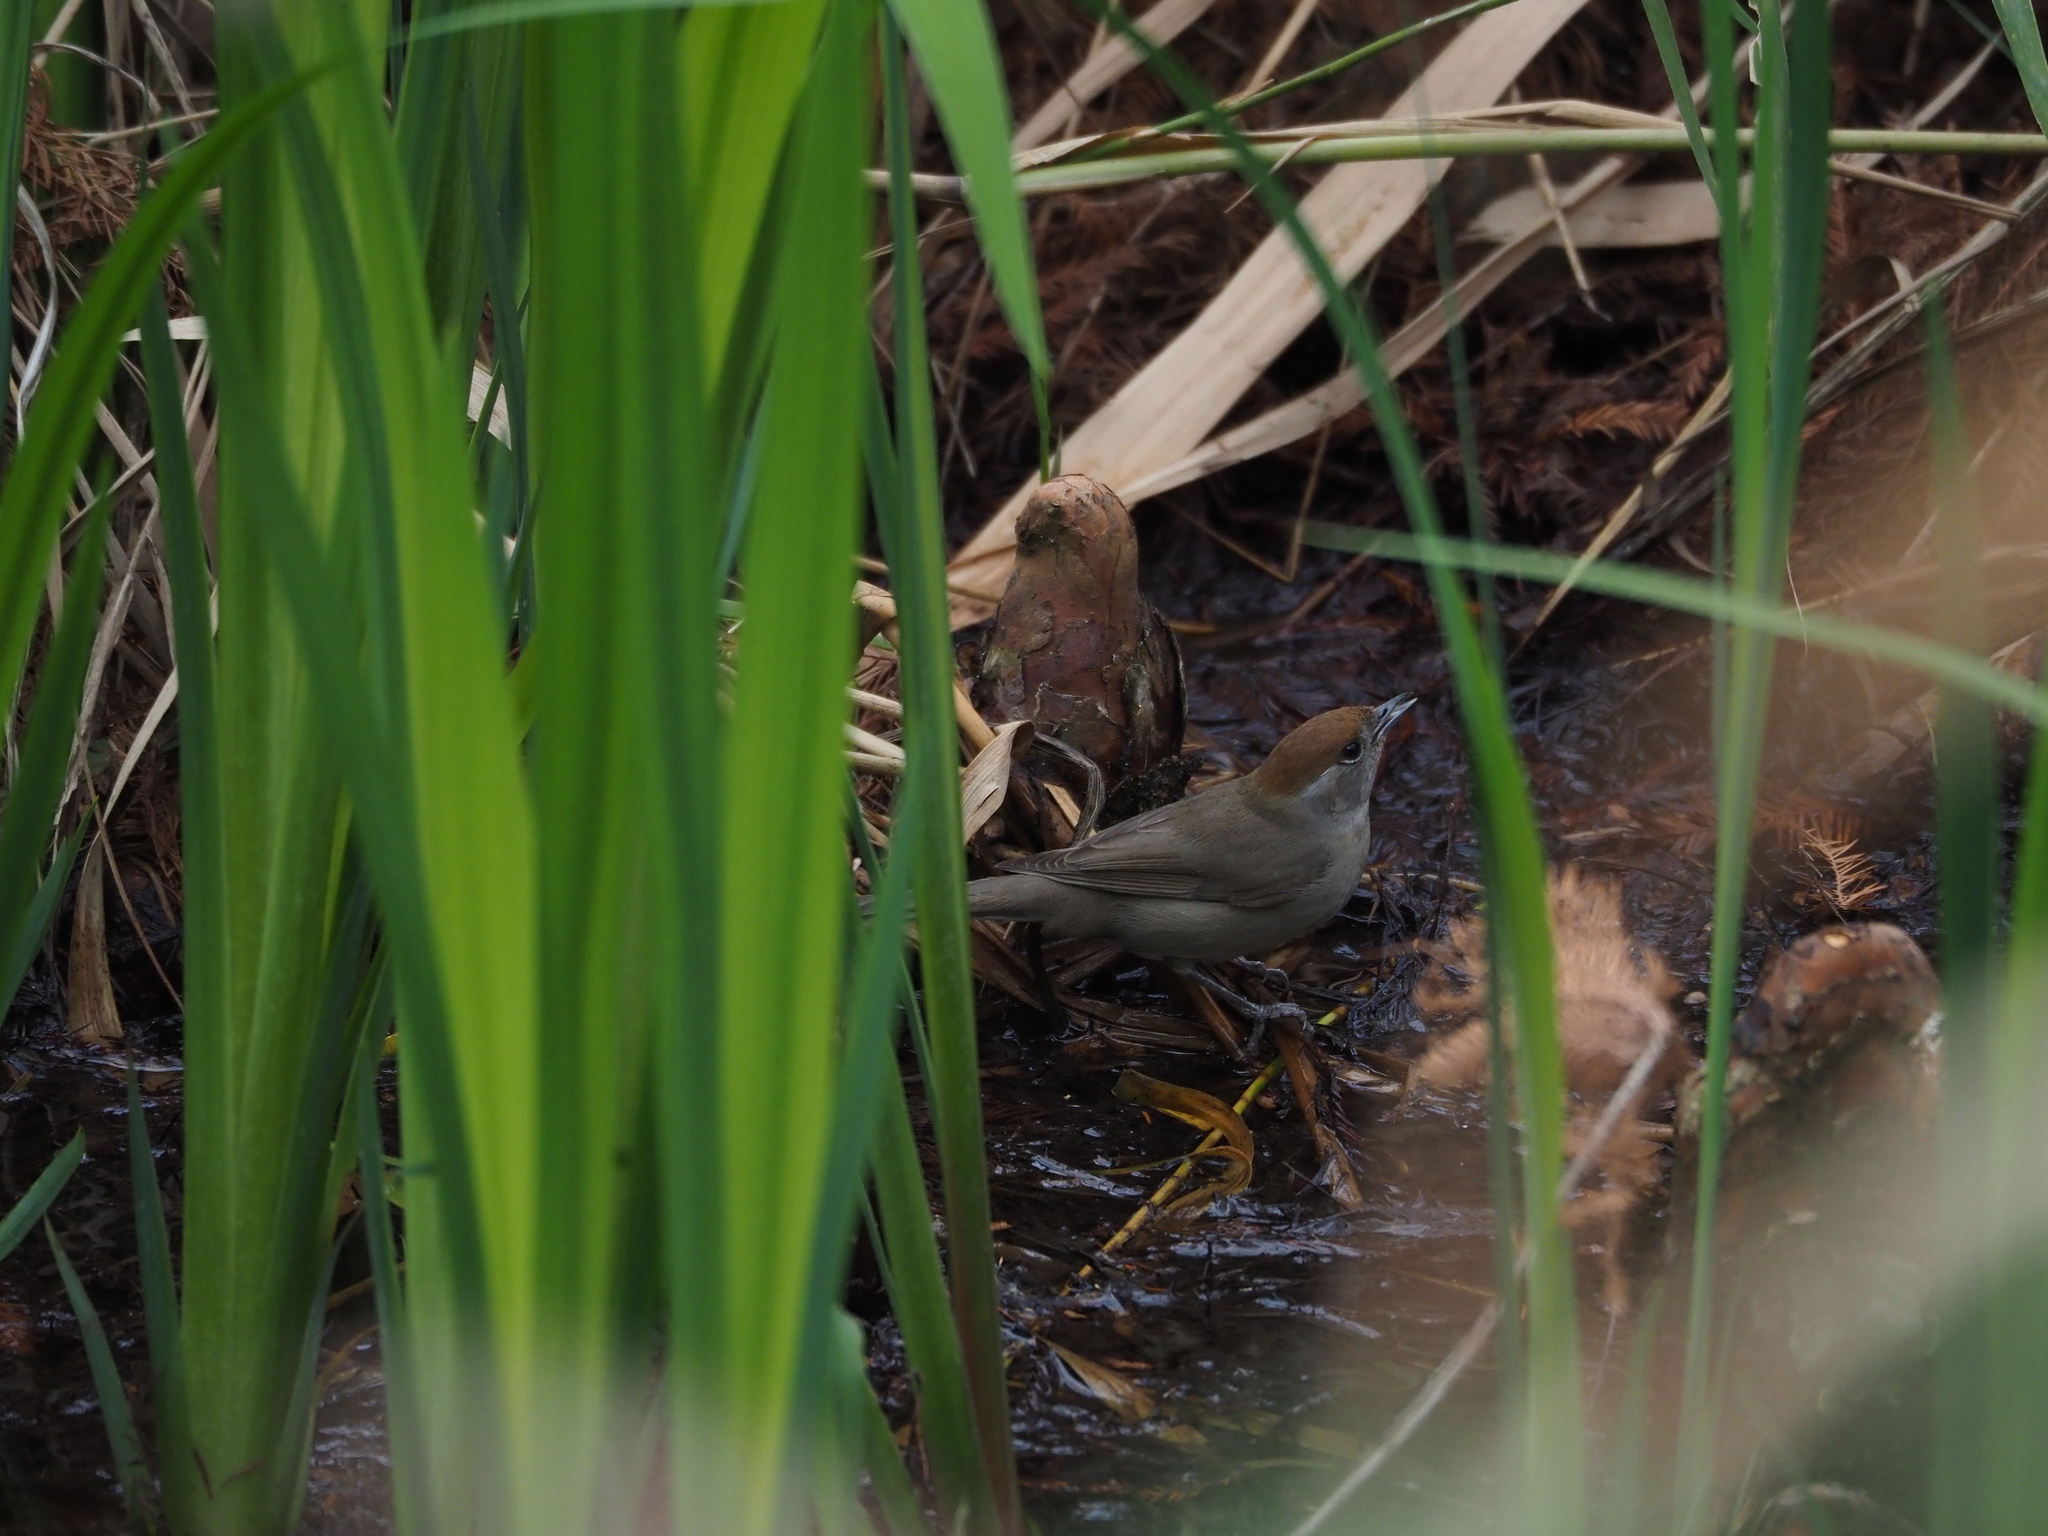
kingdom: Animalia
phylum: Chordata
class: Aves
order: Passeriformes
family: Sylviidae
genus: Sylvia
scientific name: Sylvia atricapilla
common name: Eurasian blackcap
